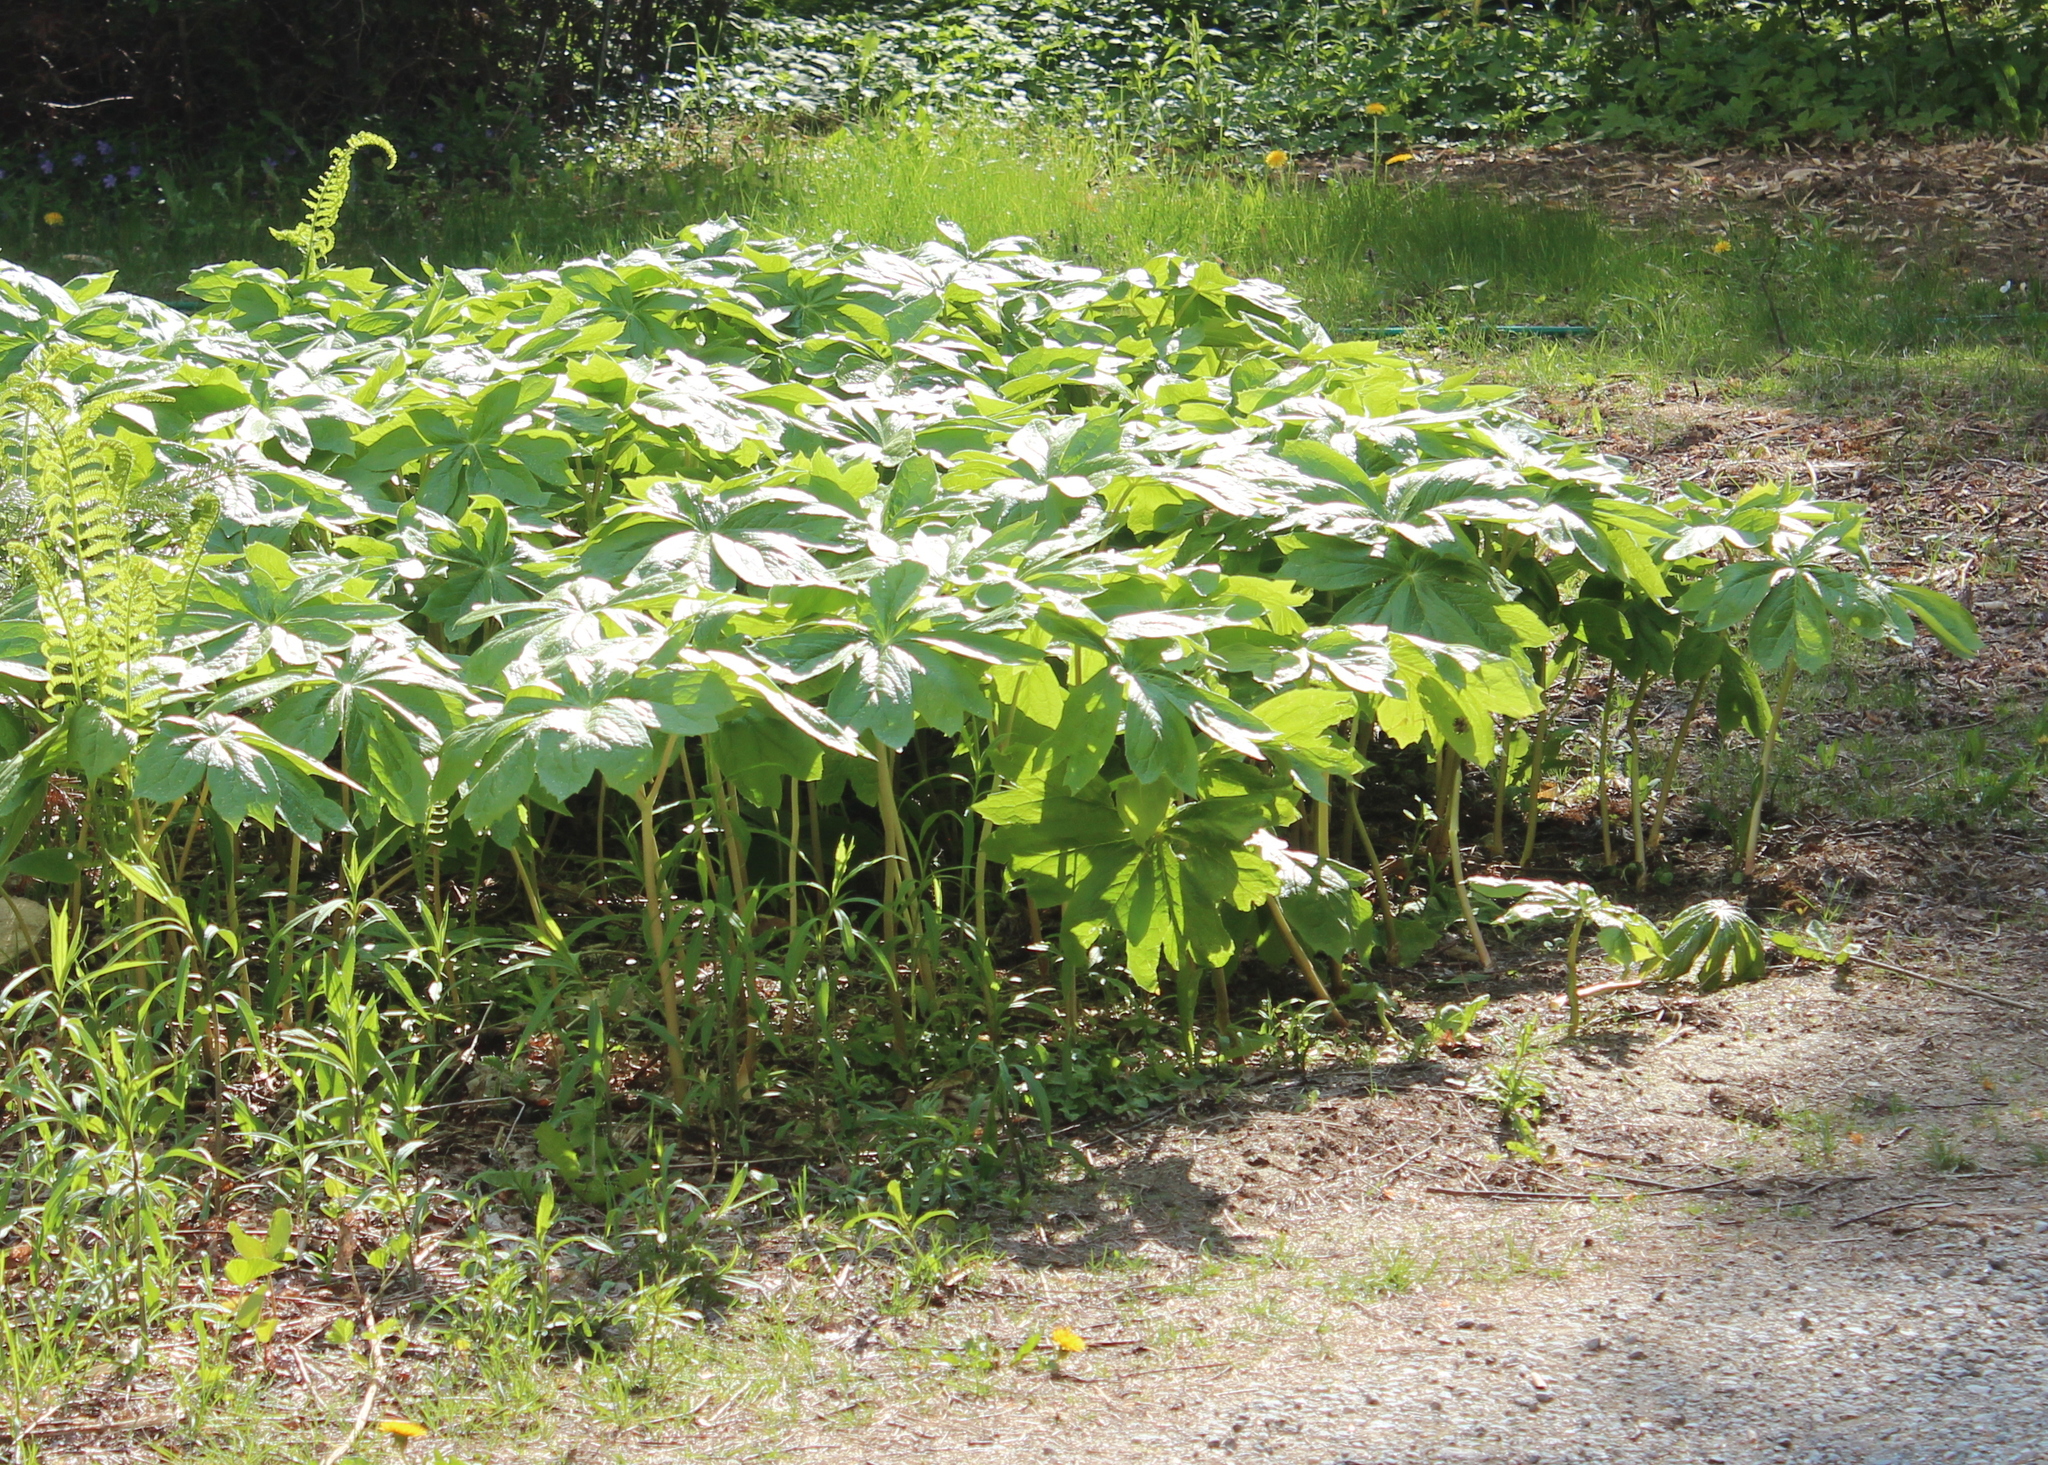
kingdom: Plantae
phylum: Tracheophyta
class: Magnoliopsida
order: Ranunculales
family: Berberidaceae
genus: Podophyllum
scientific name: Podophyllum peltatum
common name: Wild mandrake
